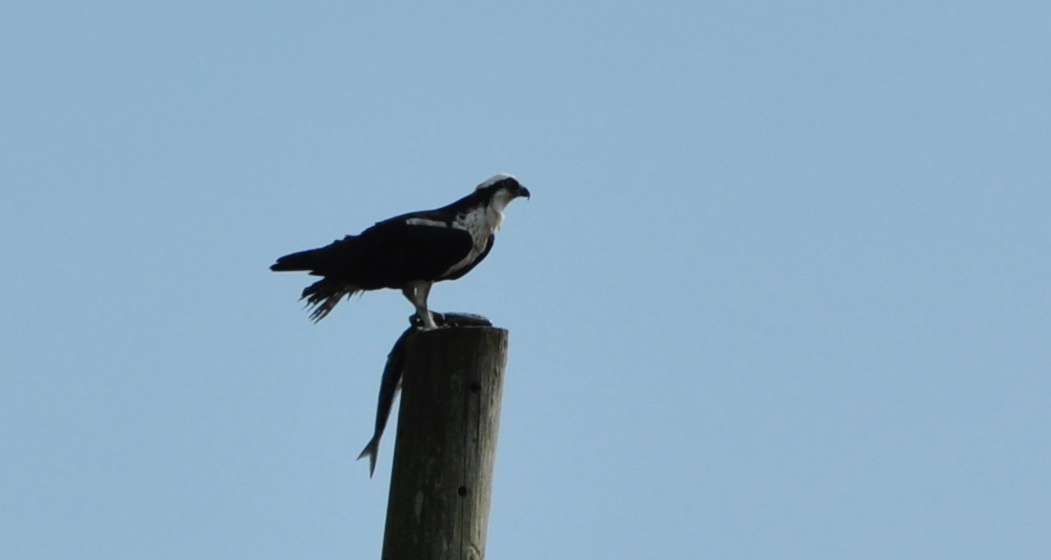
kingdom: Animalia
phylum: Chordata
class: Aves
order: Accipitriformes
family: Pandionidae
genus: Pandion
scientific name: Pandion haliaetus
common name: Osprey
